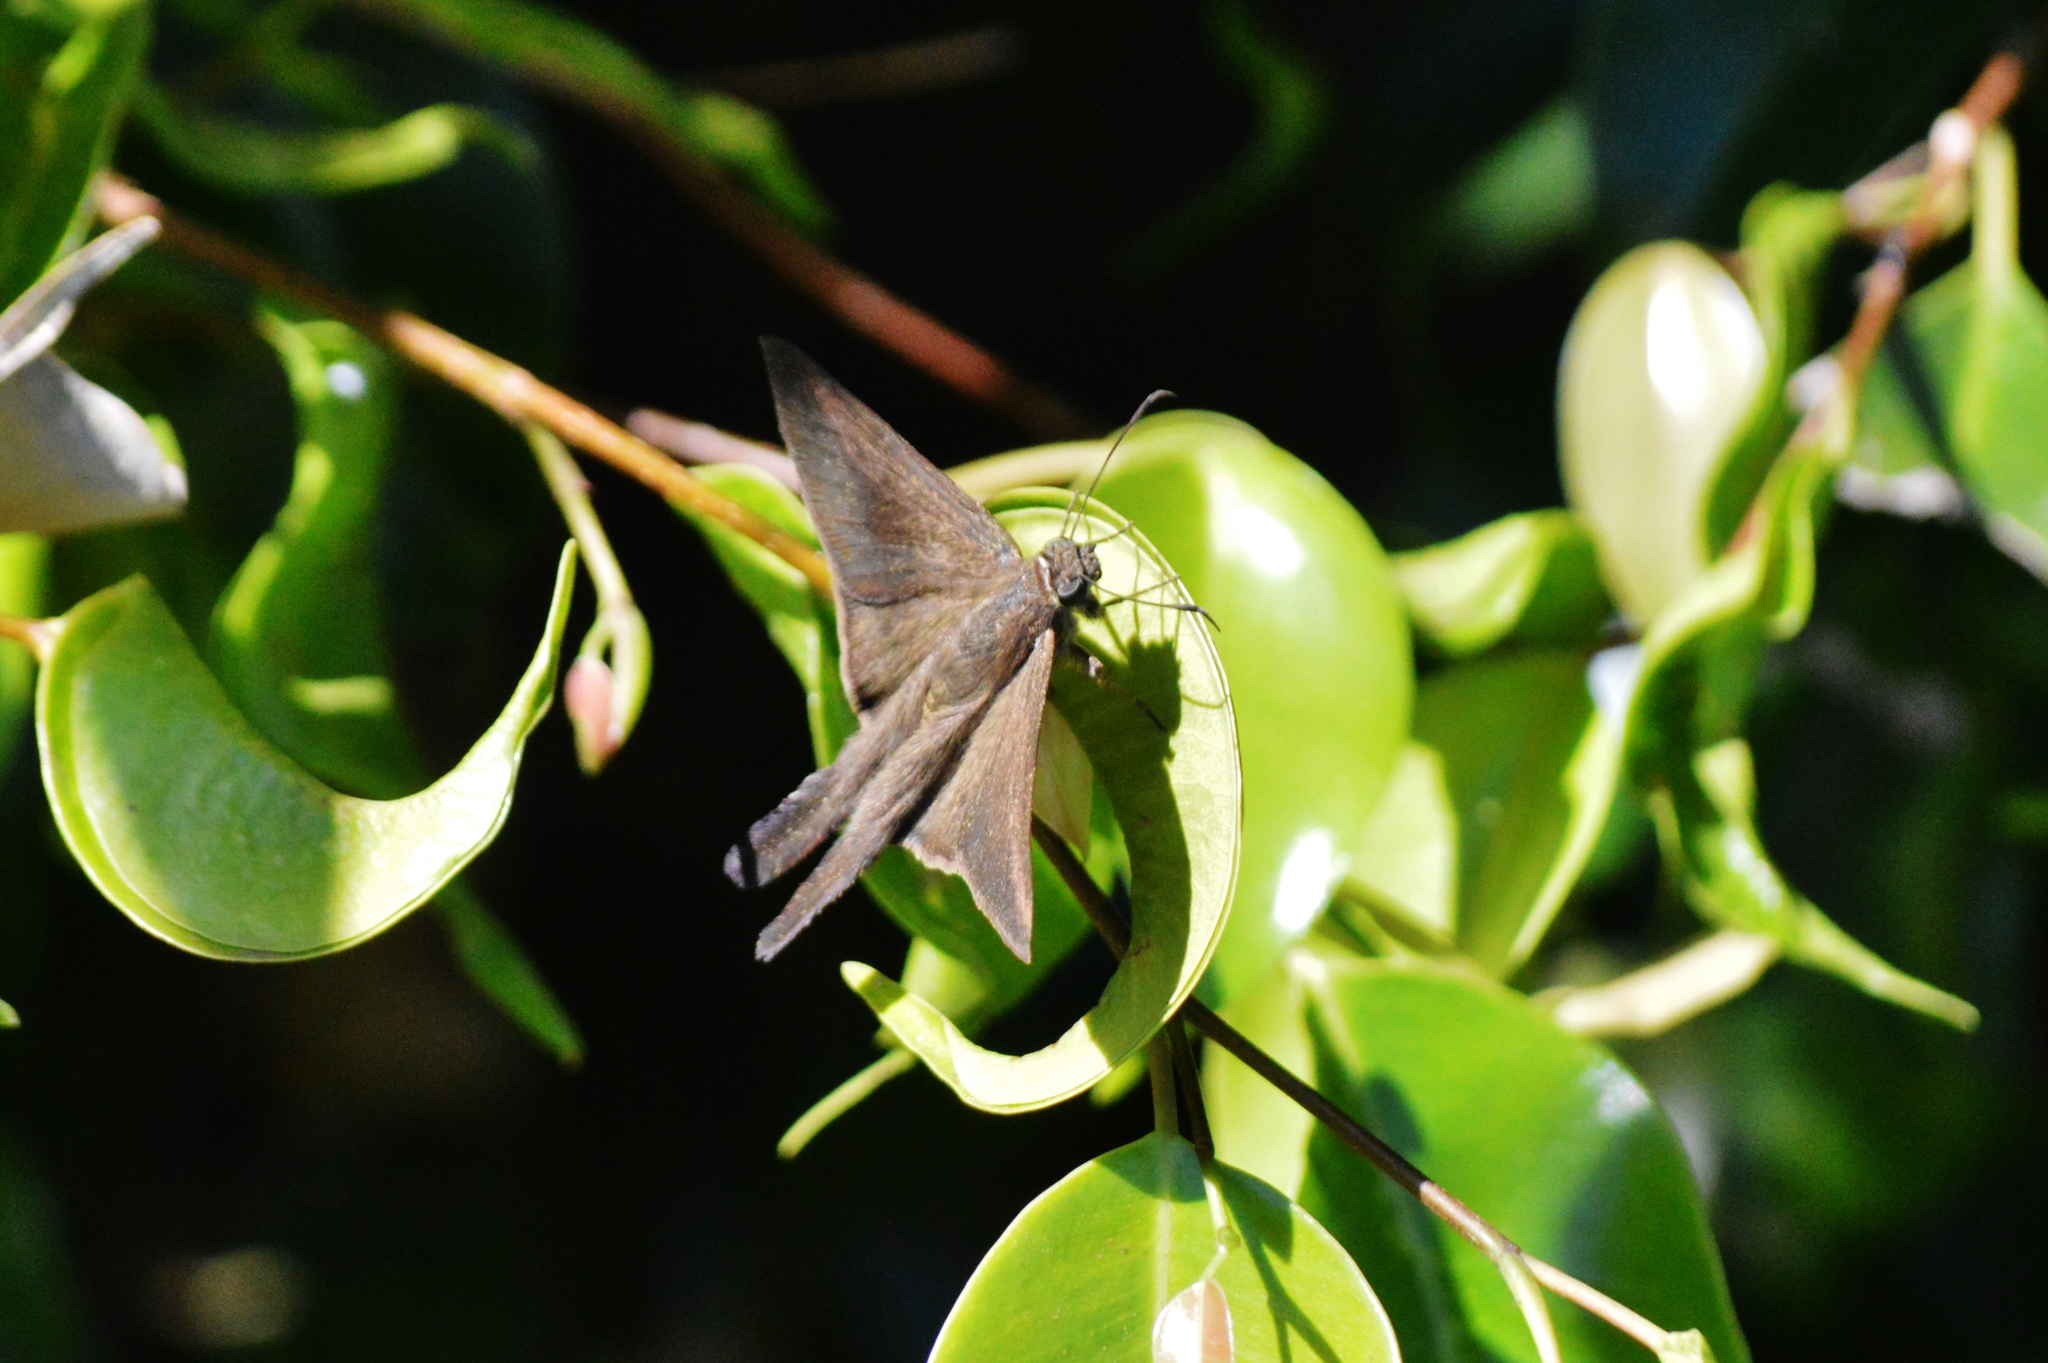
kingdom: Animalia
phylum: Arthropoda
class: Insecta
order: Lepidoptera
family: Hesperiidae
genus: Urbanus
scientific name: Urbanus procne
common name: Brown longtail
